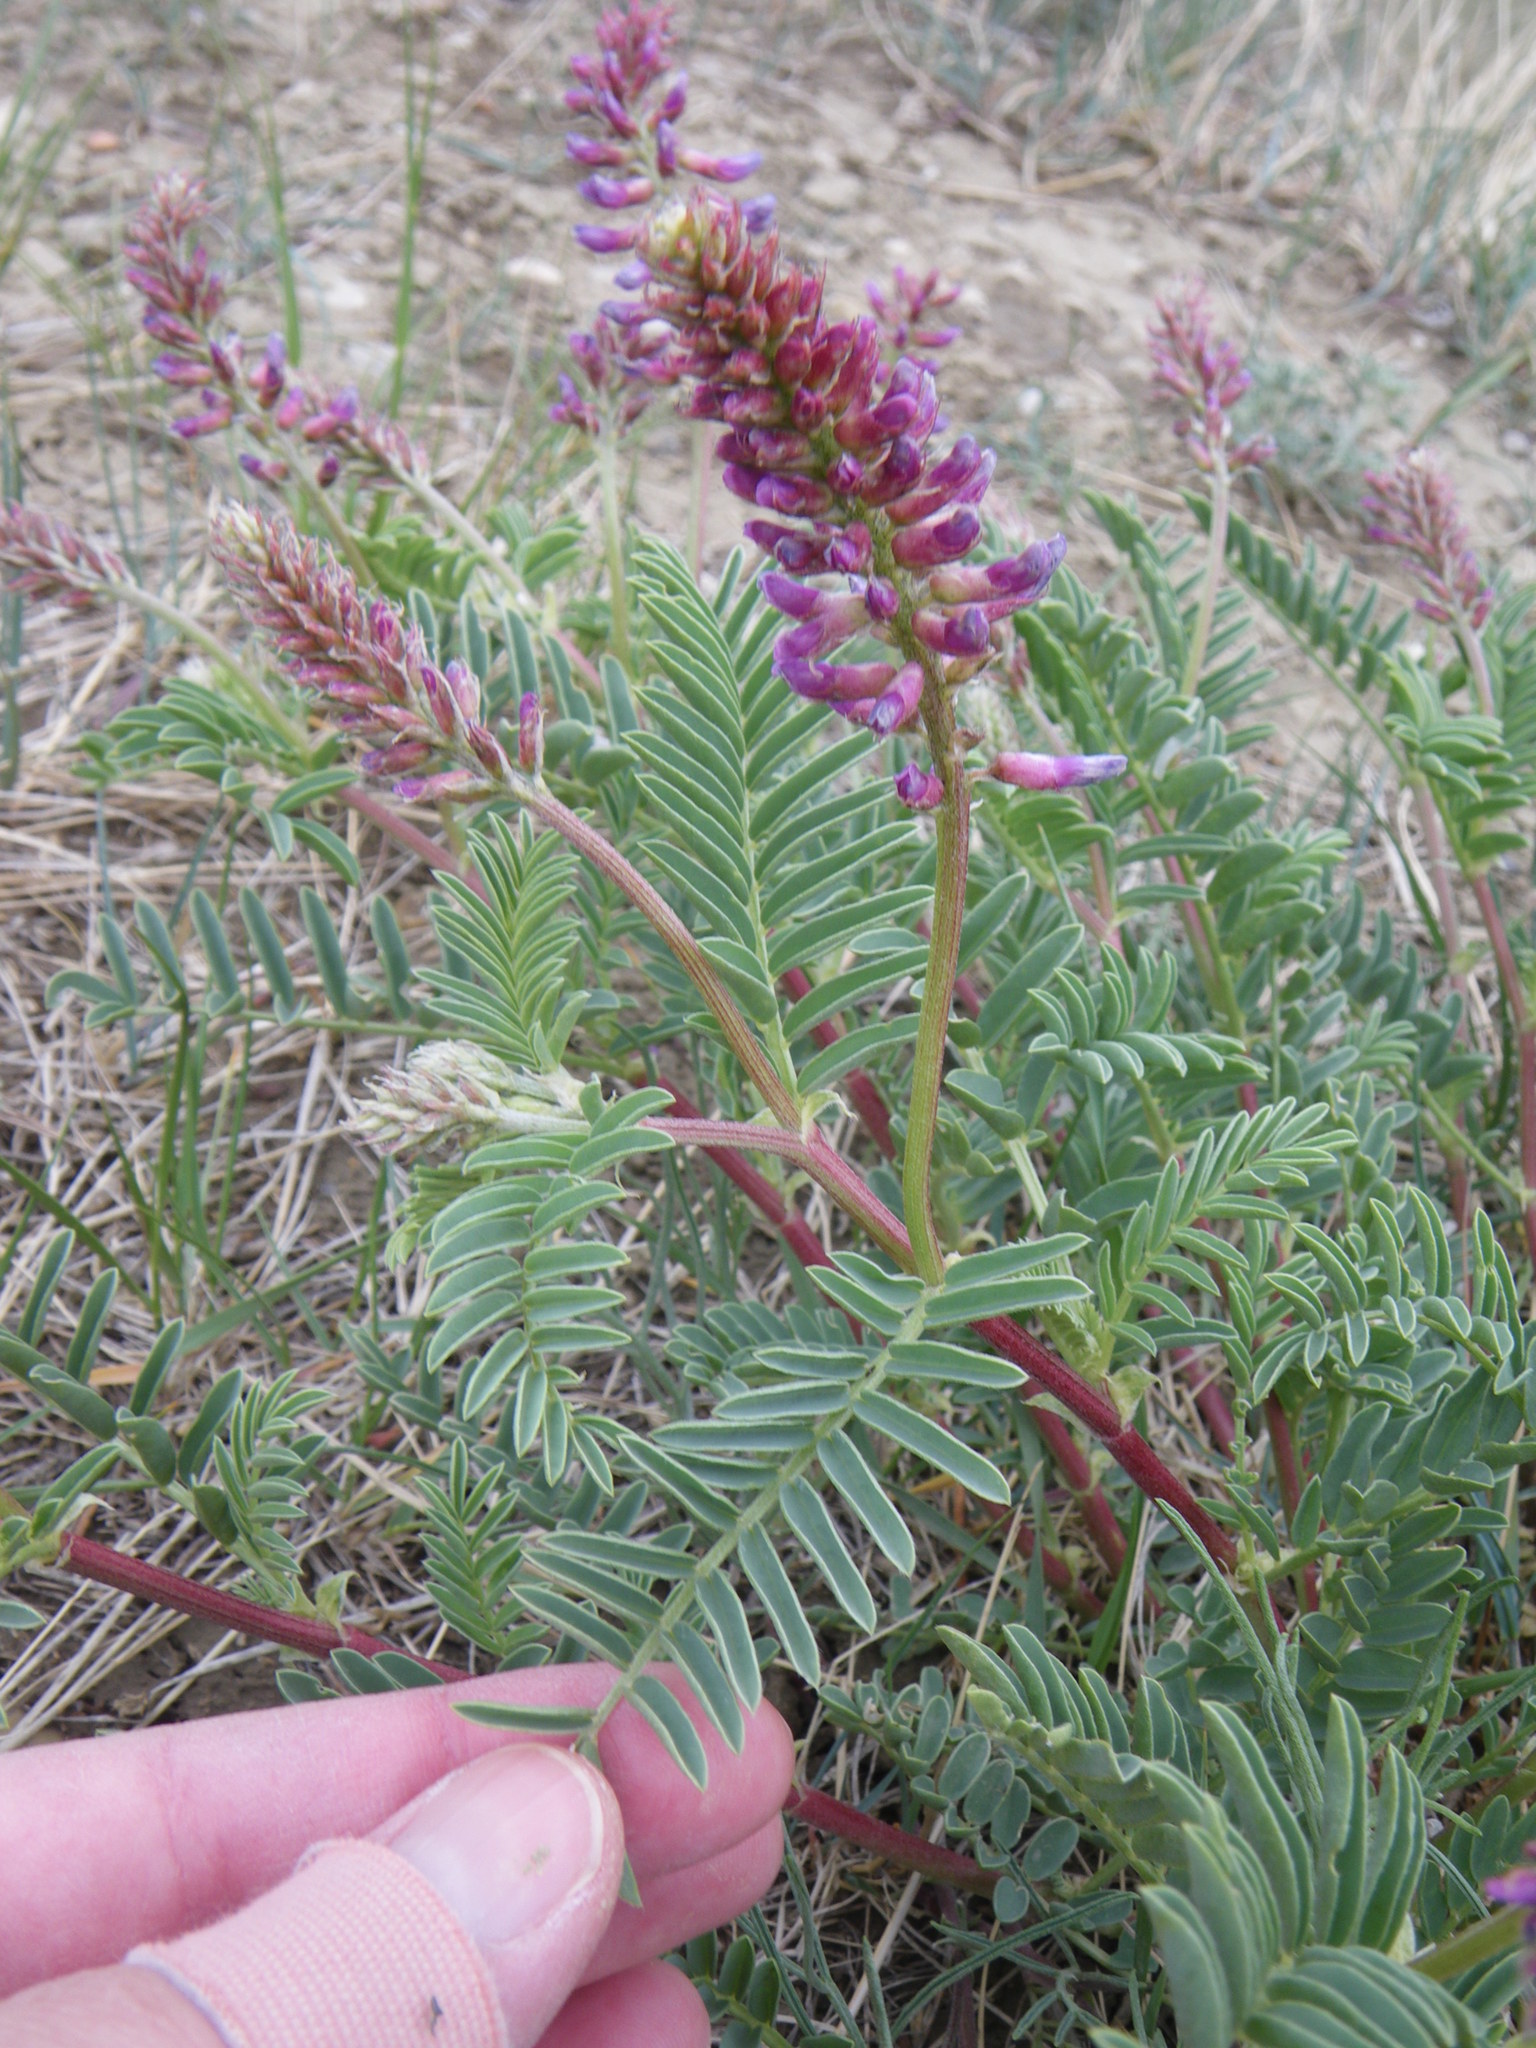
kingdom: Plantae
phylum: Tracheophyta
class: Magnoliopsida
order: Fabales
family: Fabaceae
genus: Astragalus
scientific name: Astragalus bisulcatus
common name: Two-groove milk-vetch
